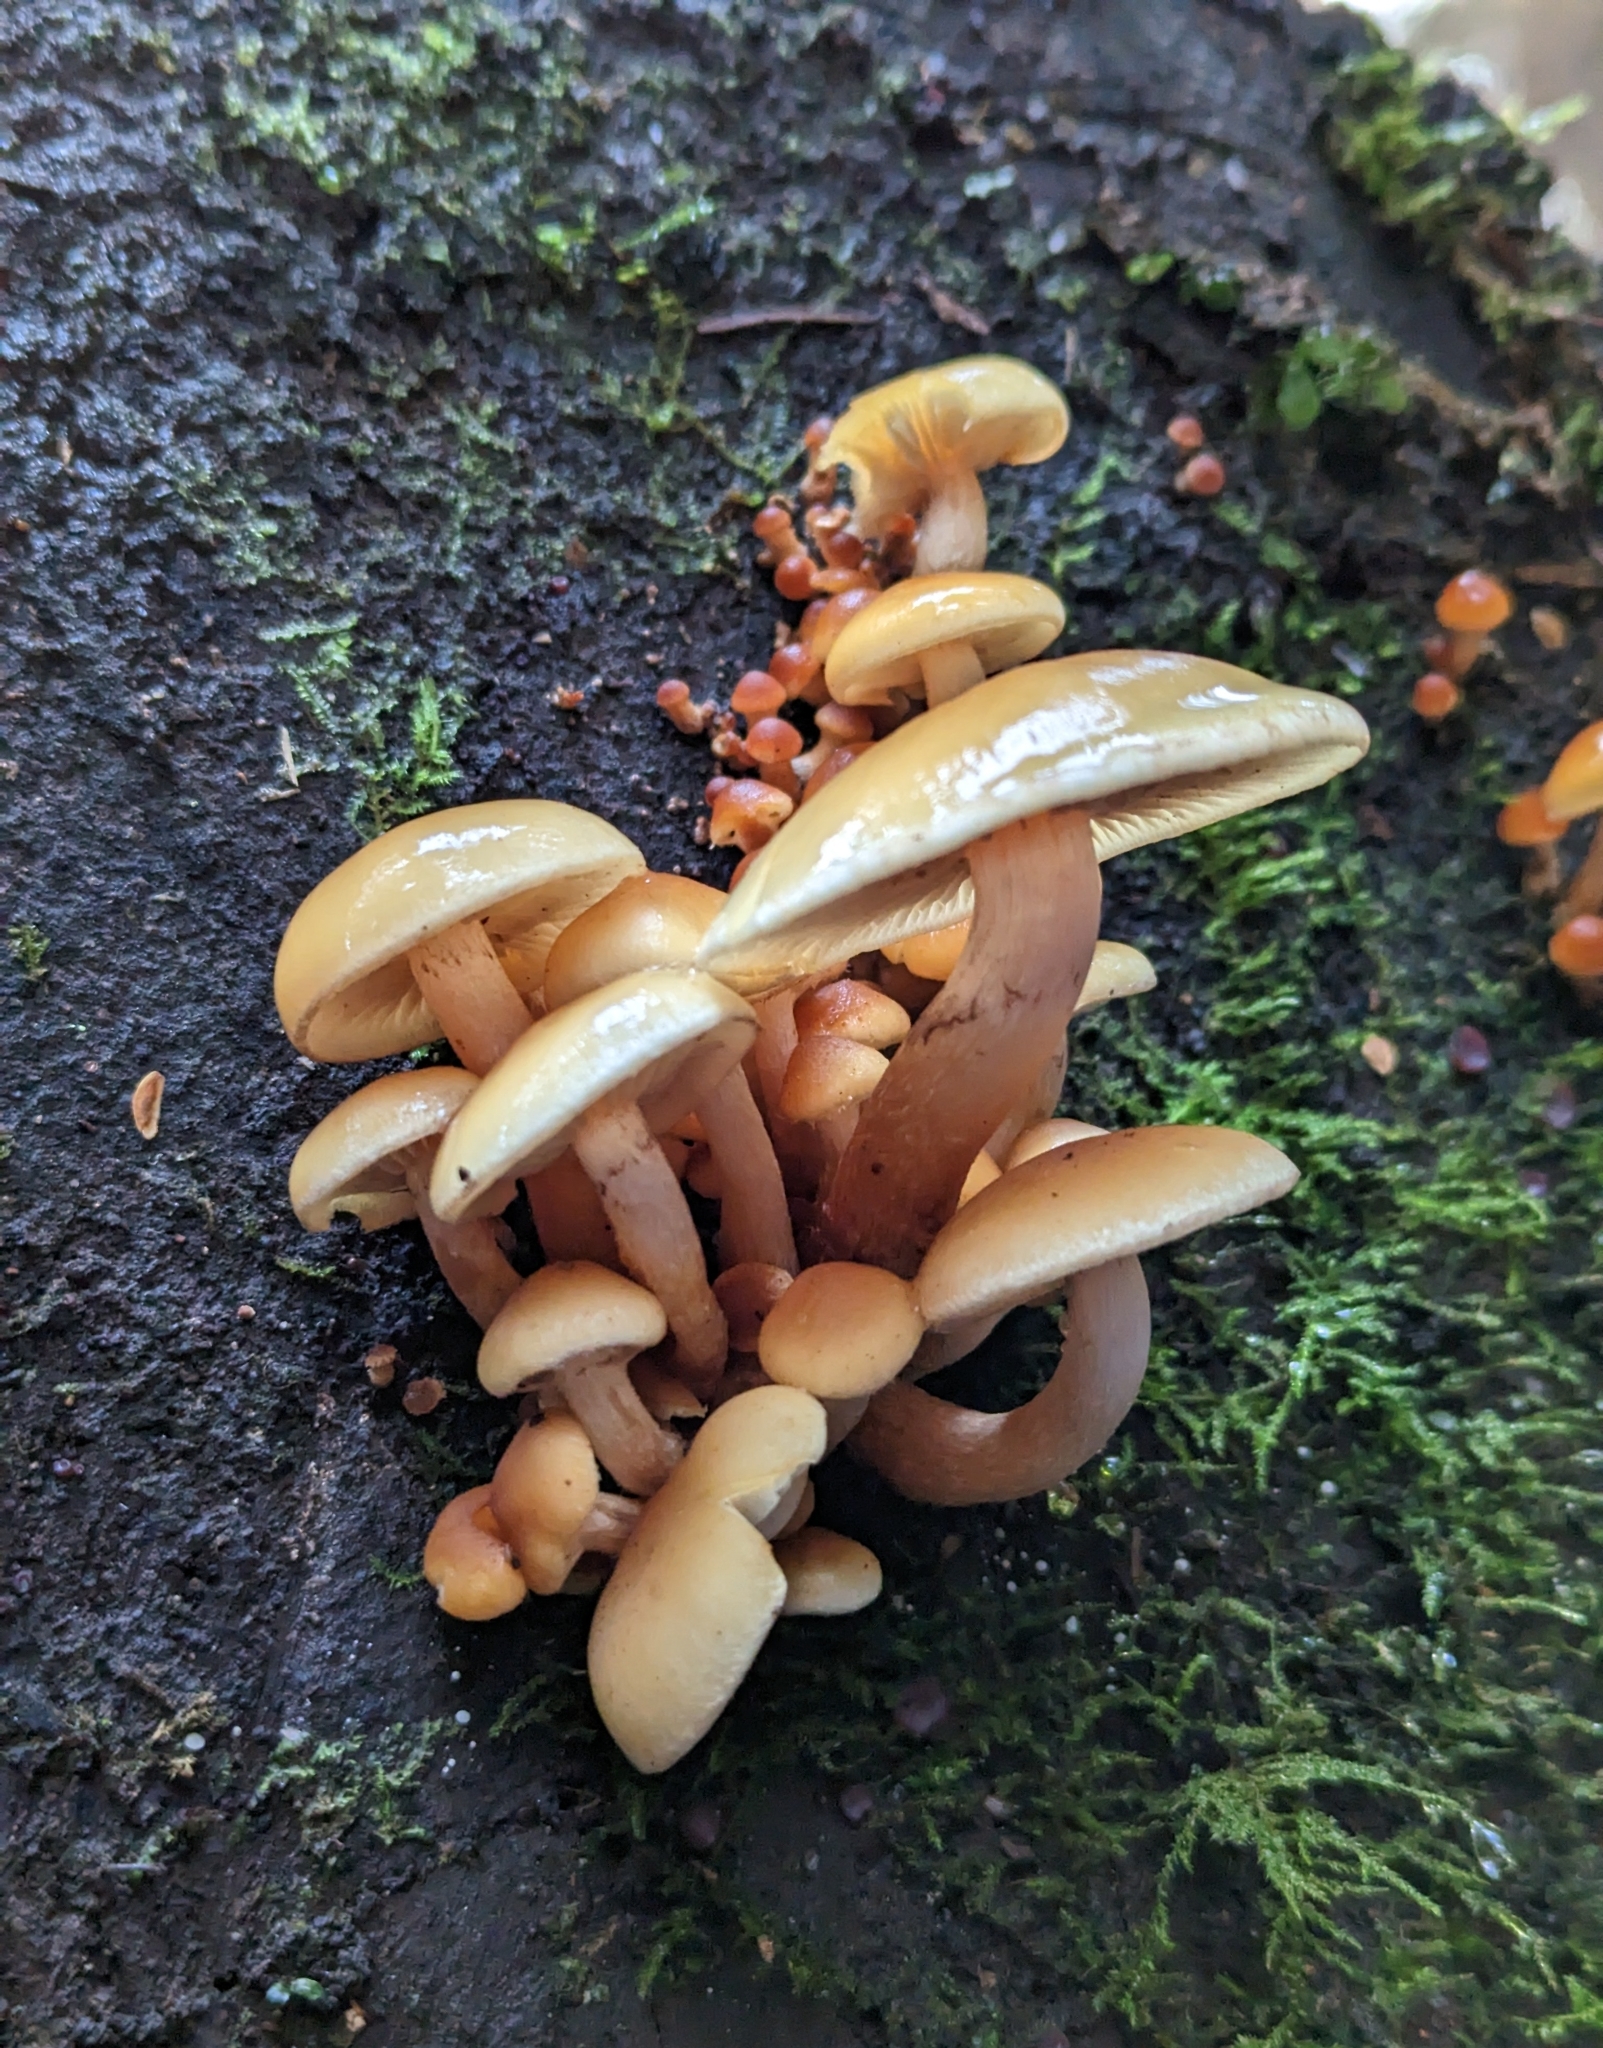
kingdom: Fungi
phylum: Basidiomycota
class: Agaricomycetes
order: Agaricales
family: Strophariaceae
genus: Hypholoma
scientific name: Hypholoma capnoides
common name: Conifer tuft
